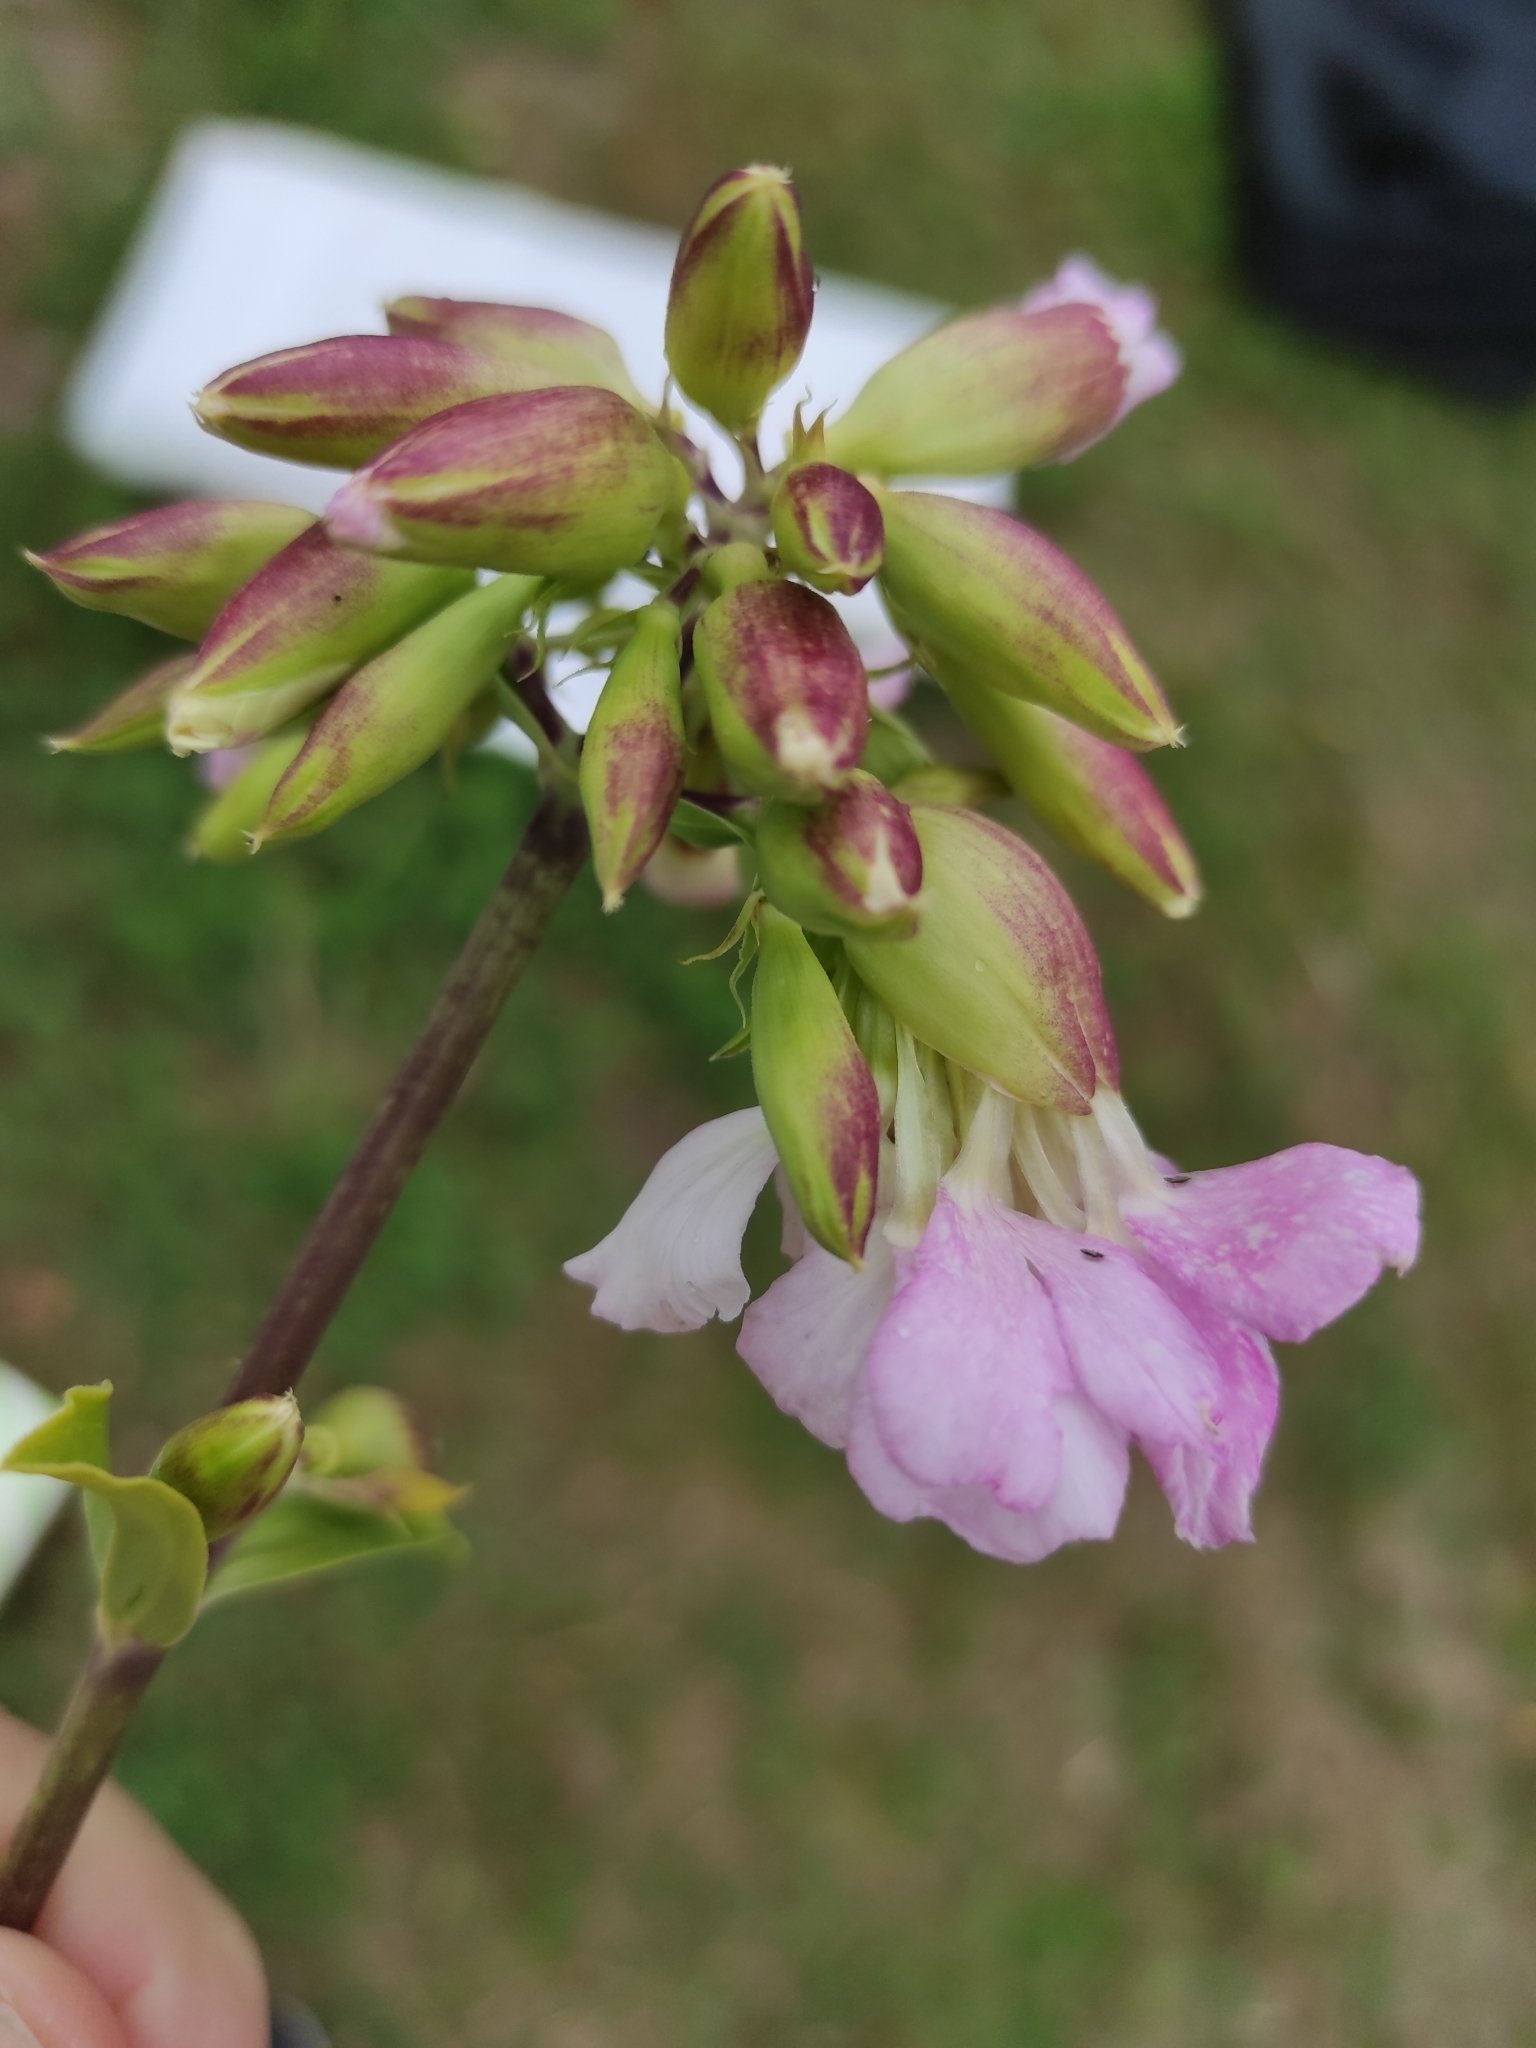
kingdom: Plantae
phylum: Tracheophyta
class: Magnoliopsida
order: Caryophyllales
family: Caryophyllaceae
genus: Saponaria
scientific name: Saponaria officinalis
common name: Soapwort
